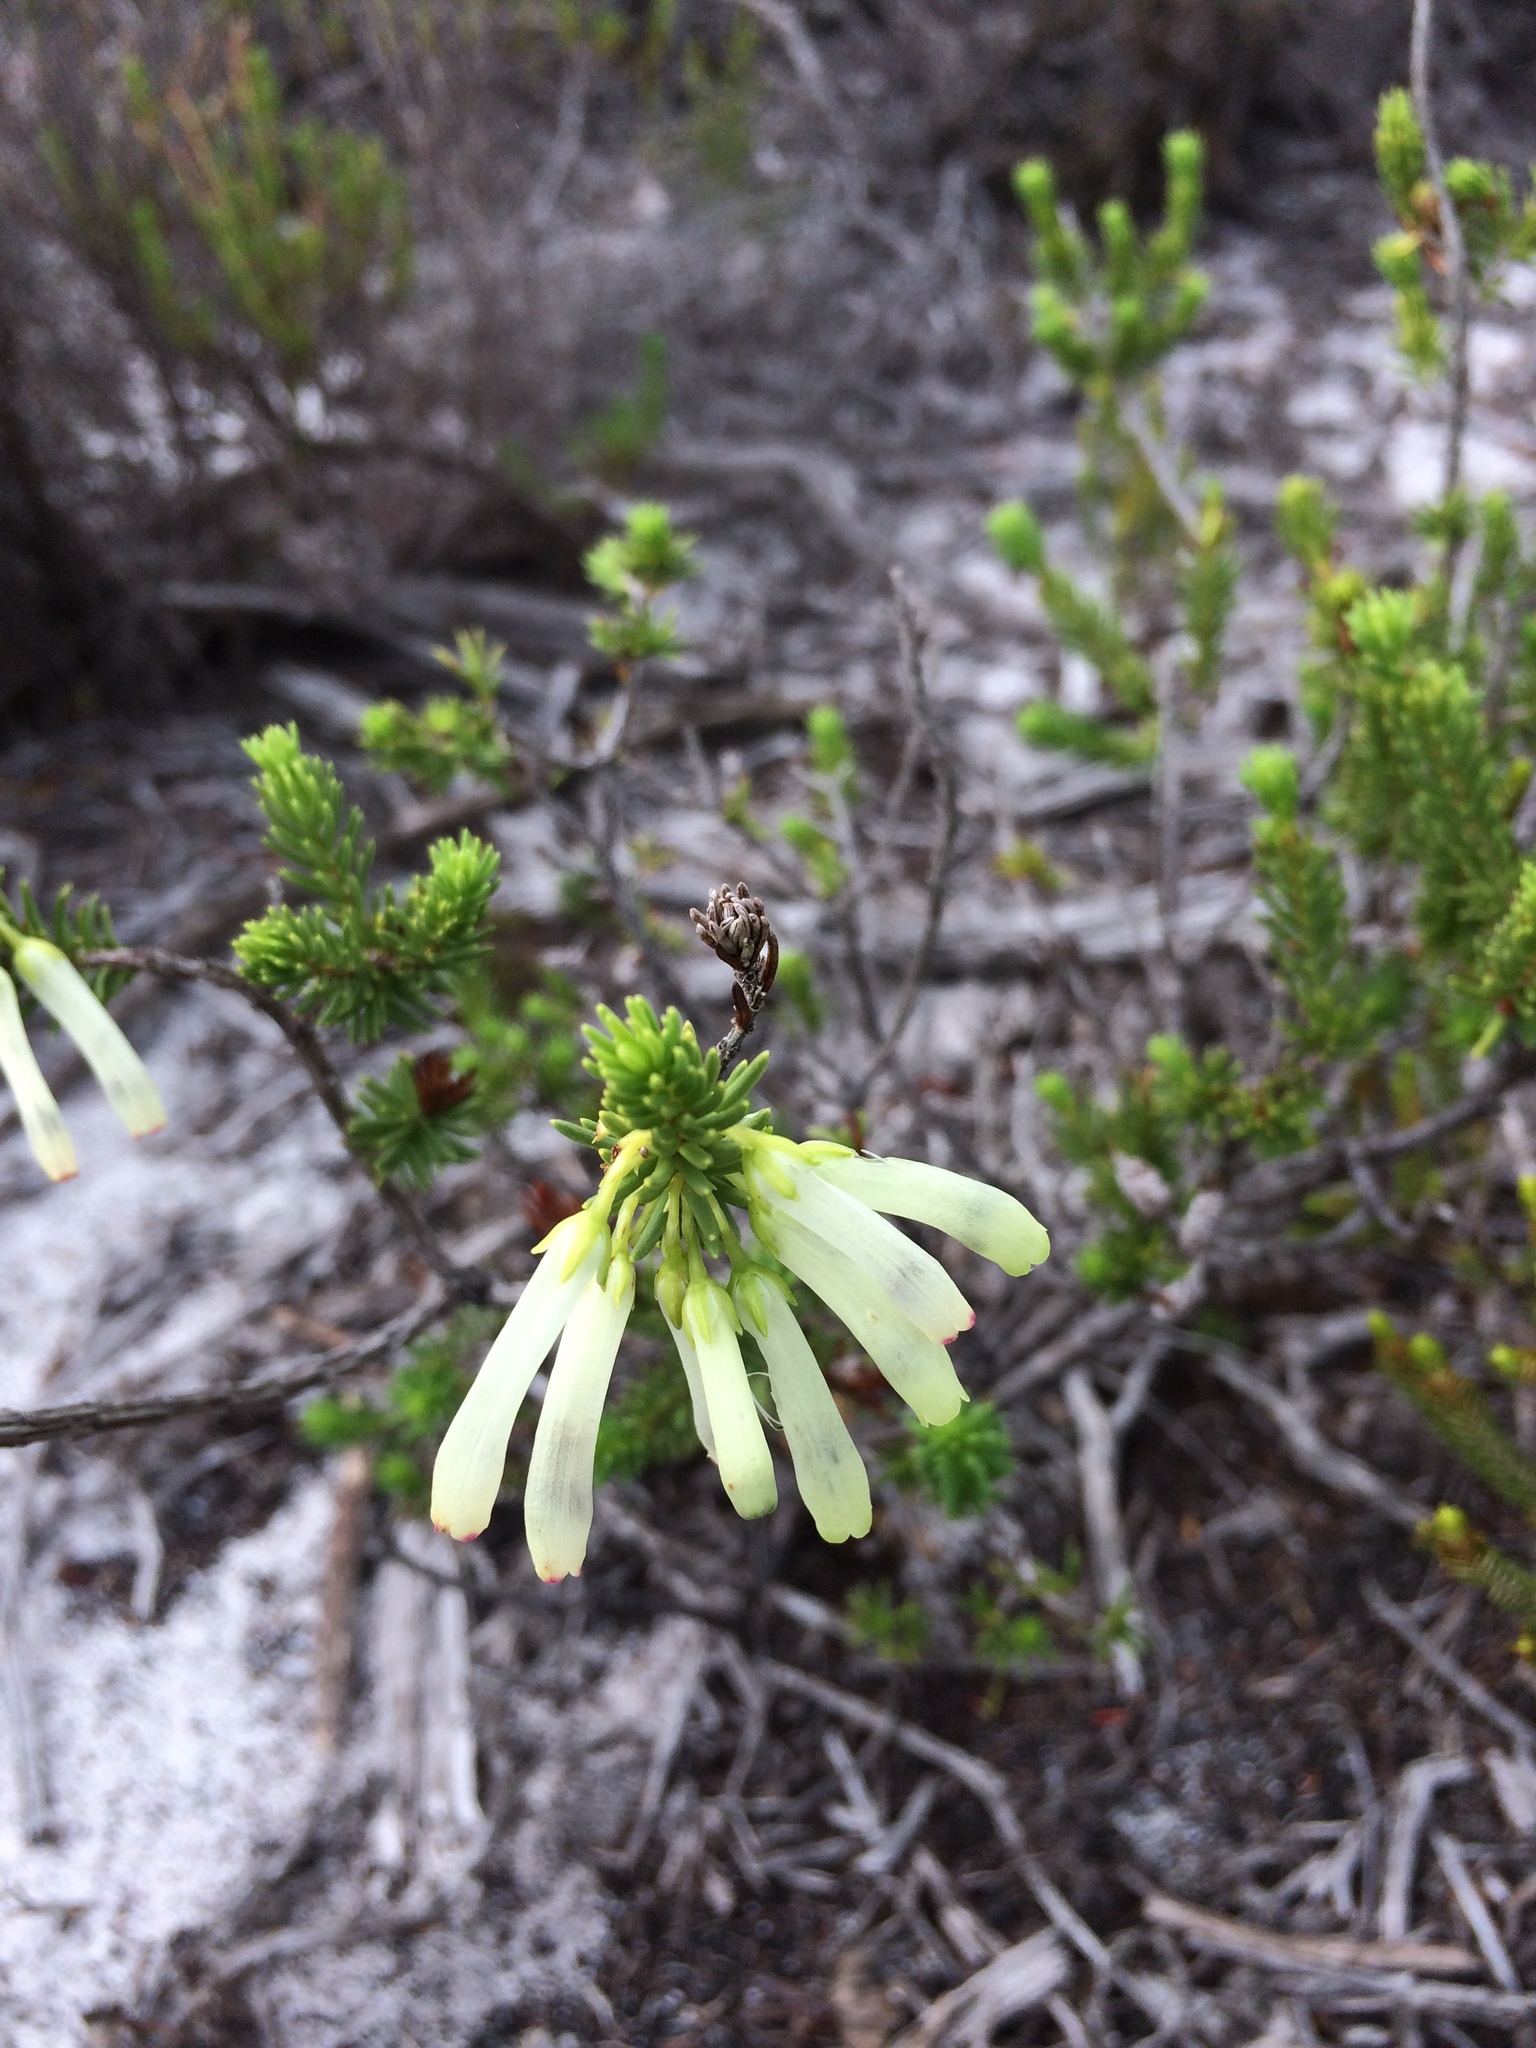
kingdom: Plantae
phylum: Tracheophyta
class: Magnoliopsida
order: Ericales
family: Ericaceae
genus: Erica
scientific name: Erica mammosa
